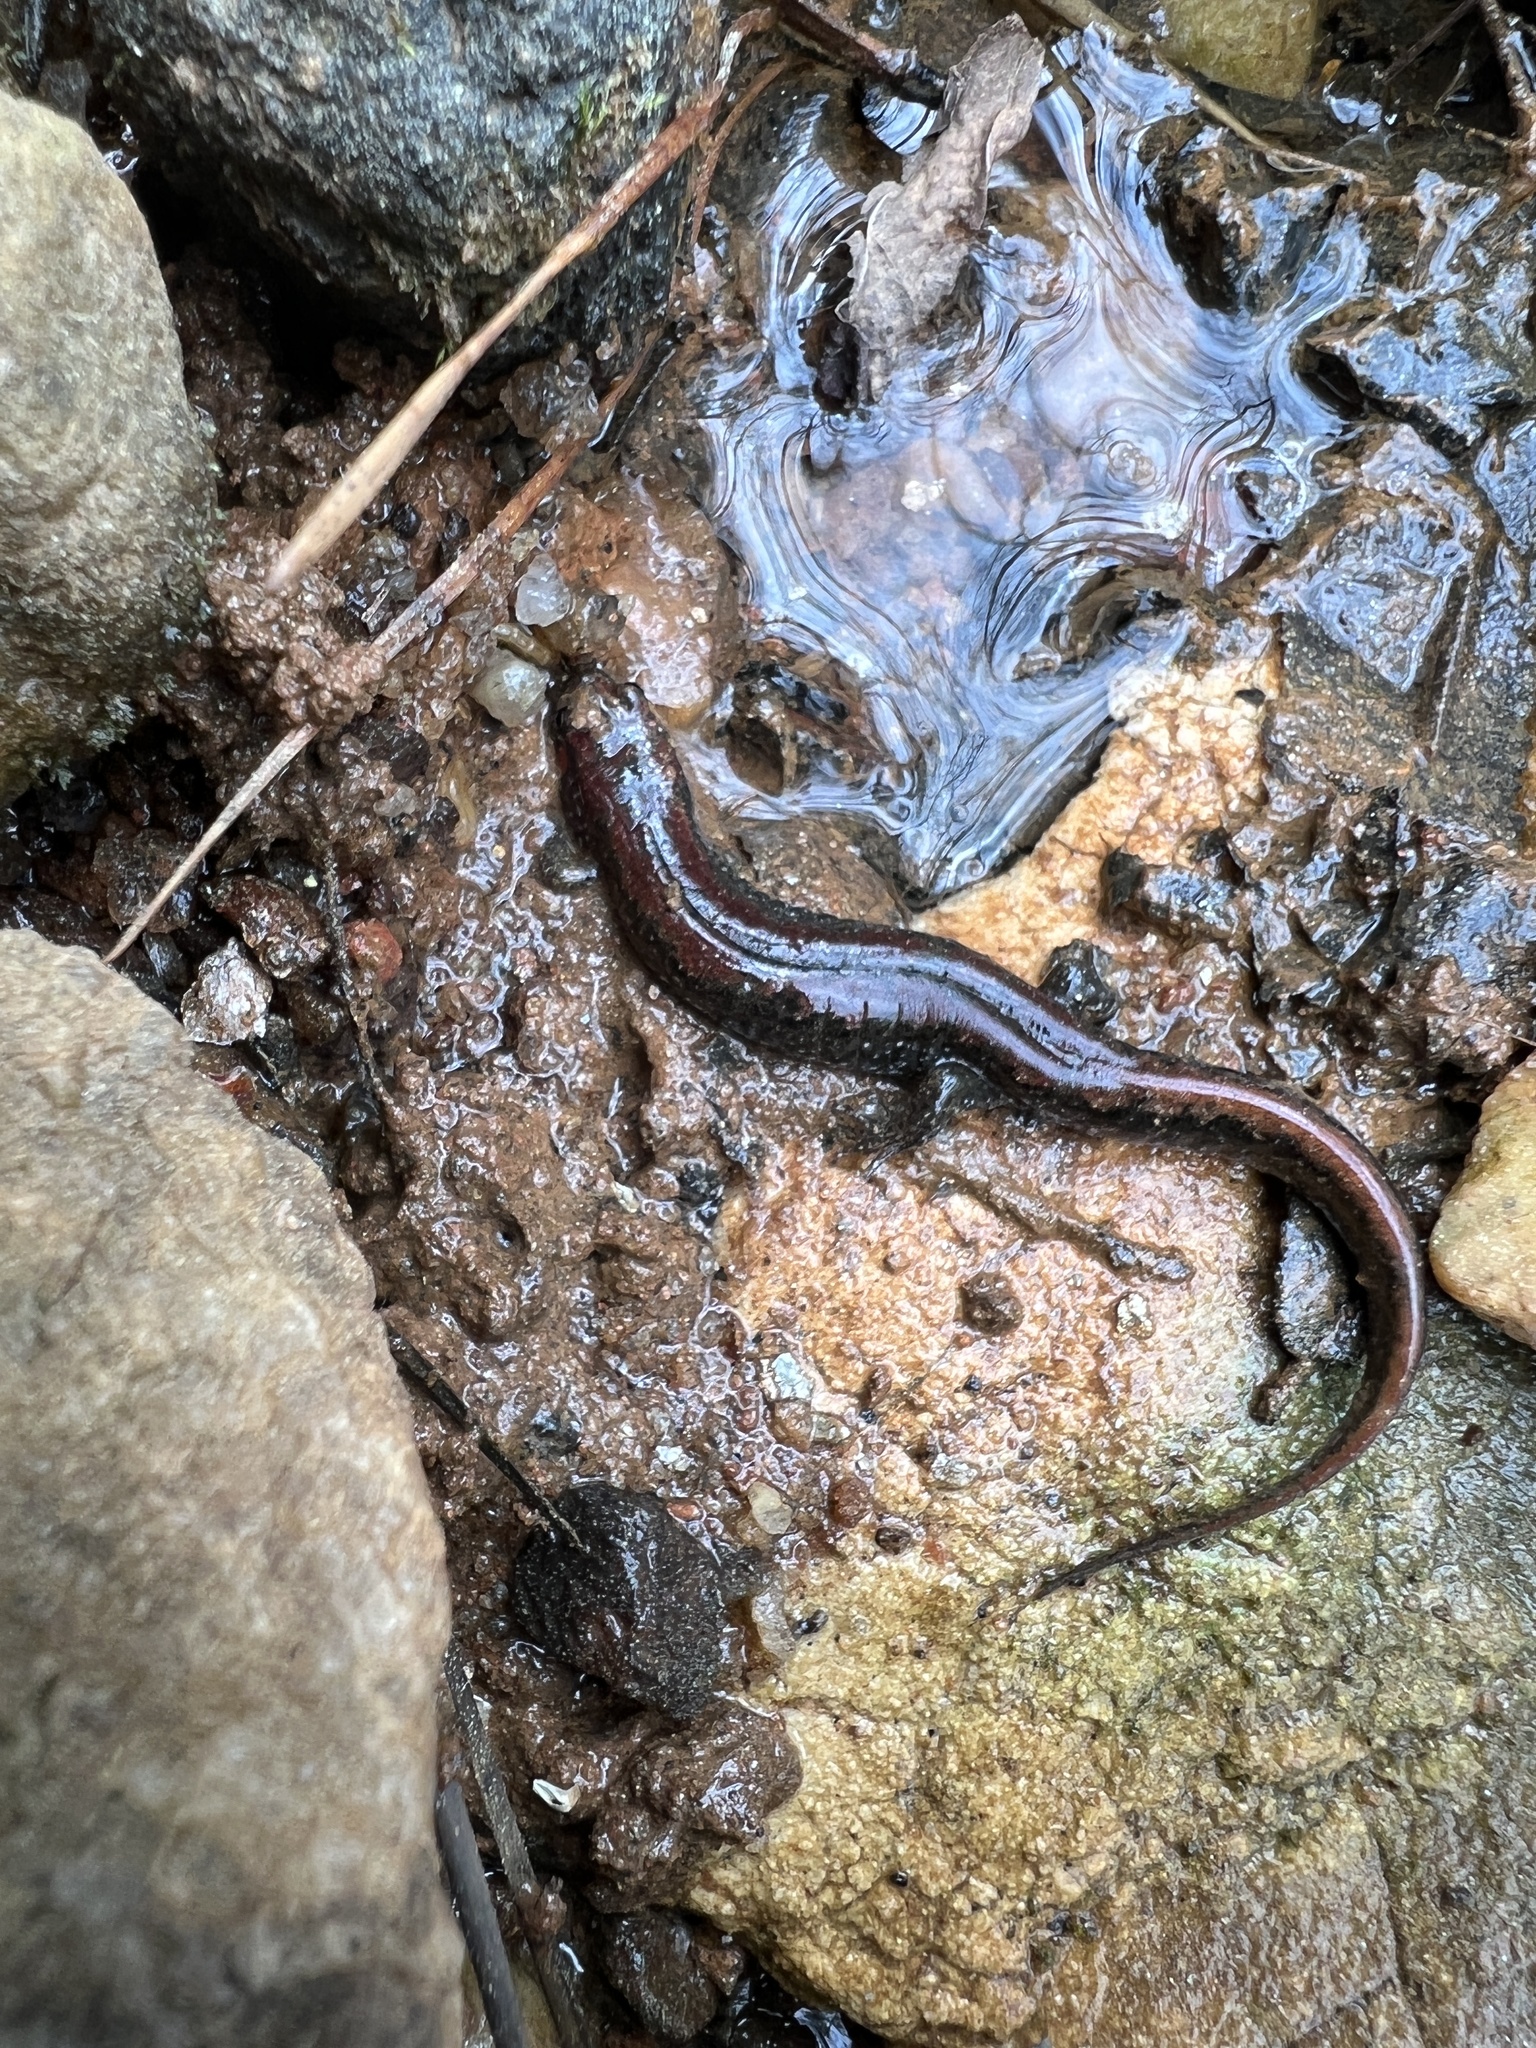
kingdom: Animalia
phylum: Chordata
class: Amphibia
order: Caudata
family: Plethodontidae
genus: Desmognathus
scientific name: Desmognathus conanti
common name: Spotted dusky salamander
